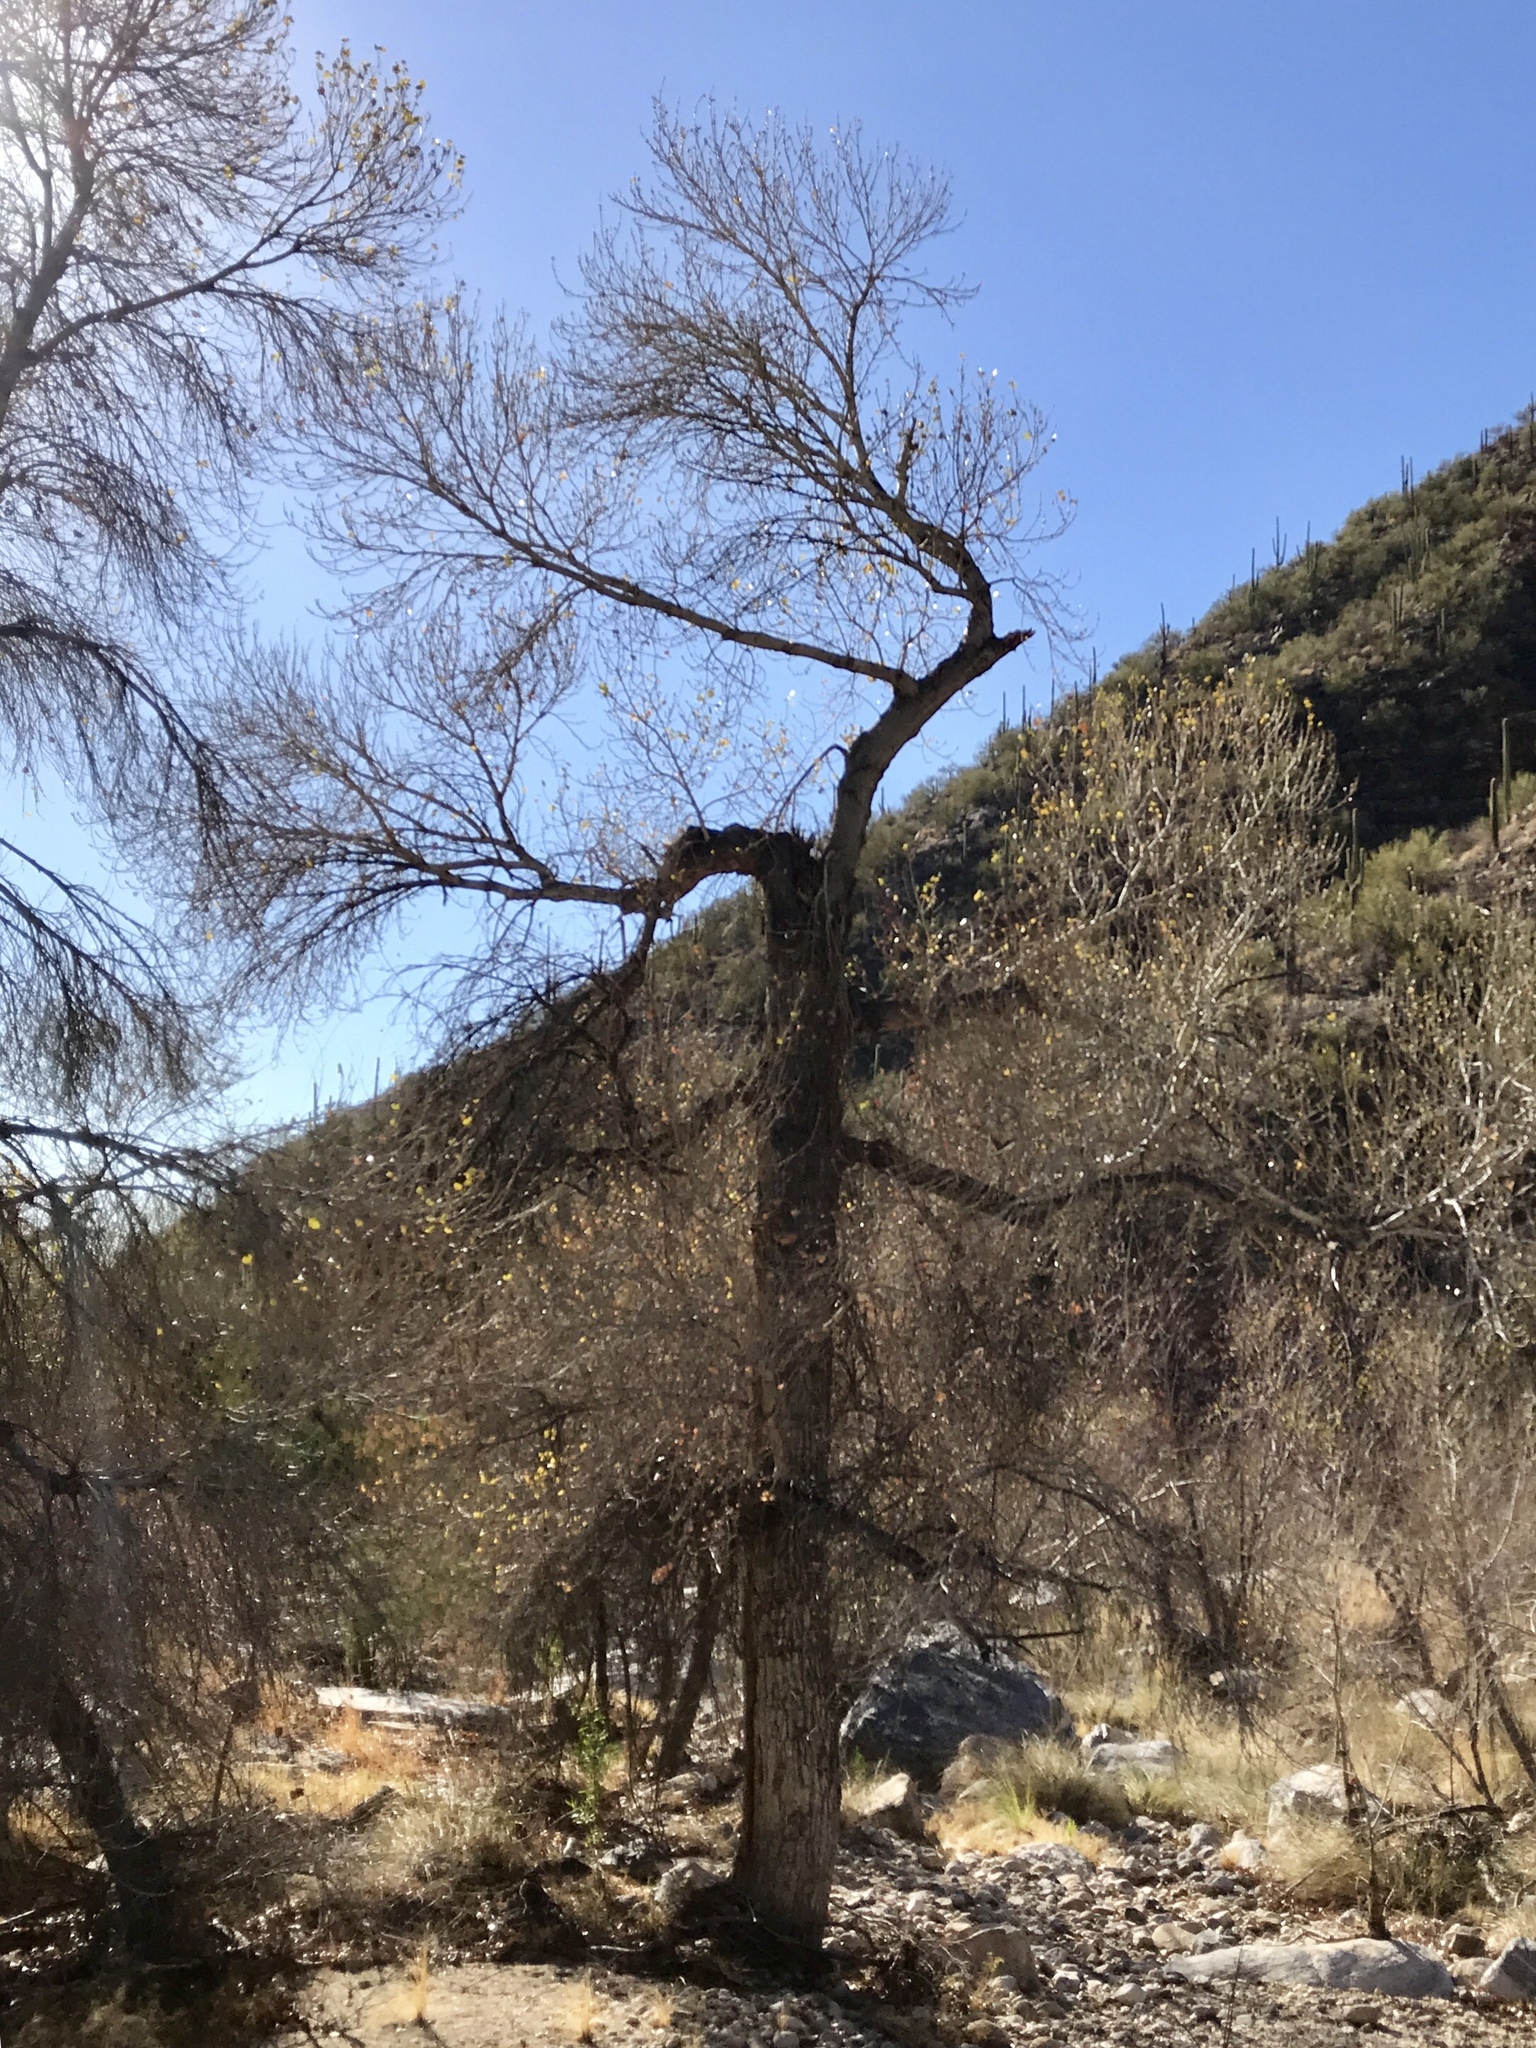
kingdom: Plantae
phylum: Tracheophyta
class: Magnoliopsida
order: Malpighiales
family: Salicaceae
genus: Populus
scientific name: Populus fremontii
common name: Fremont's cottonwood
